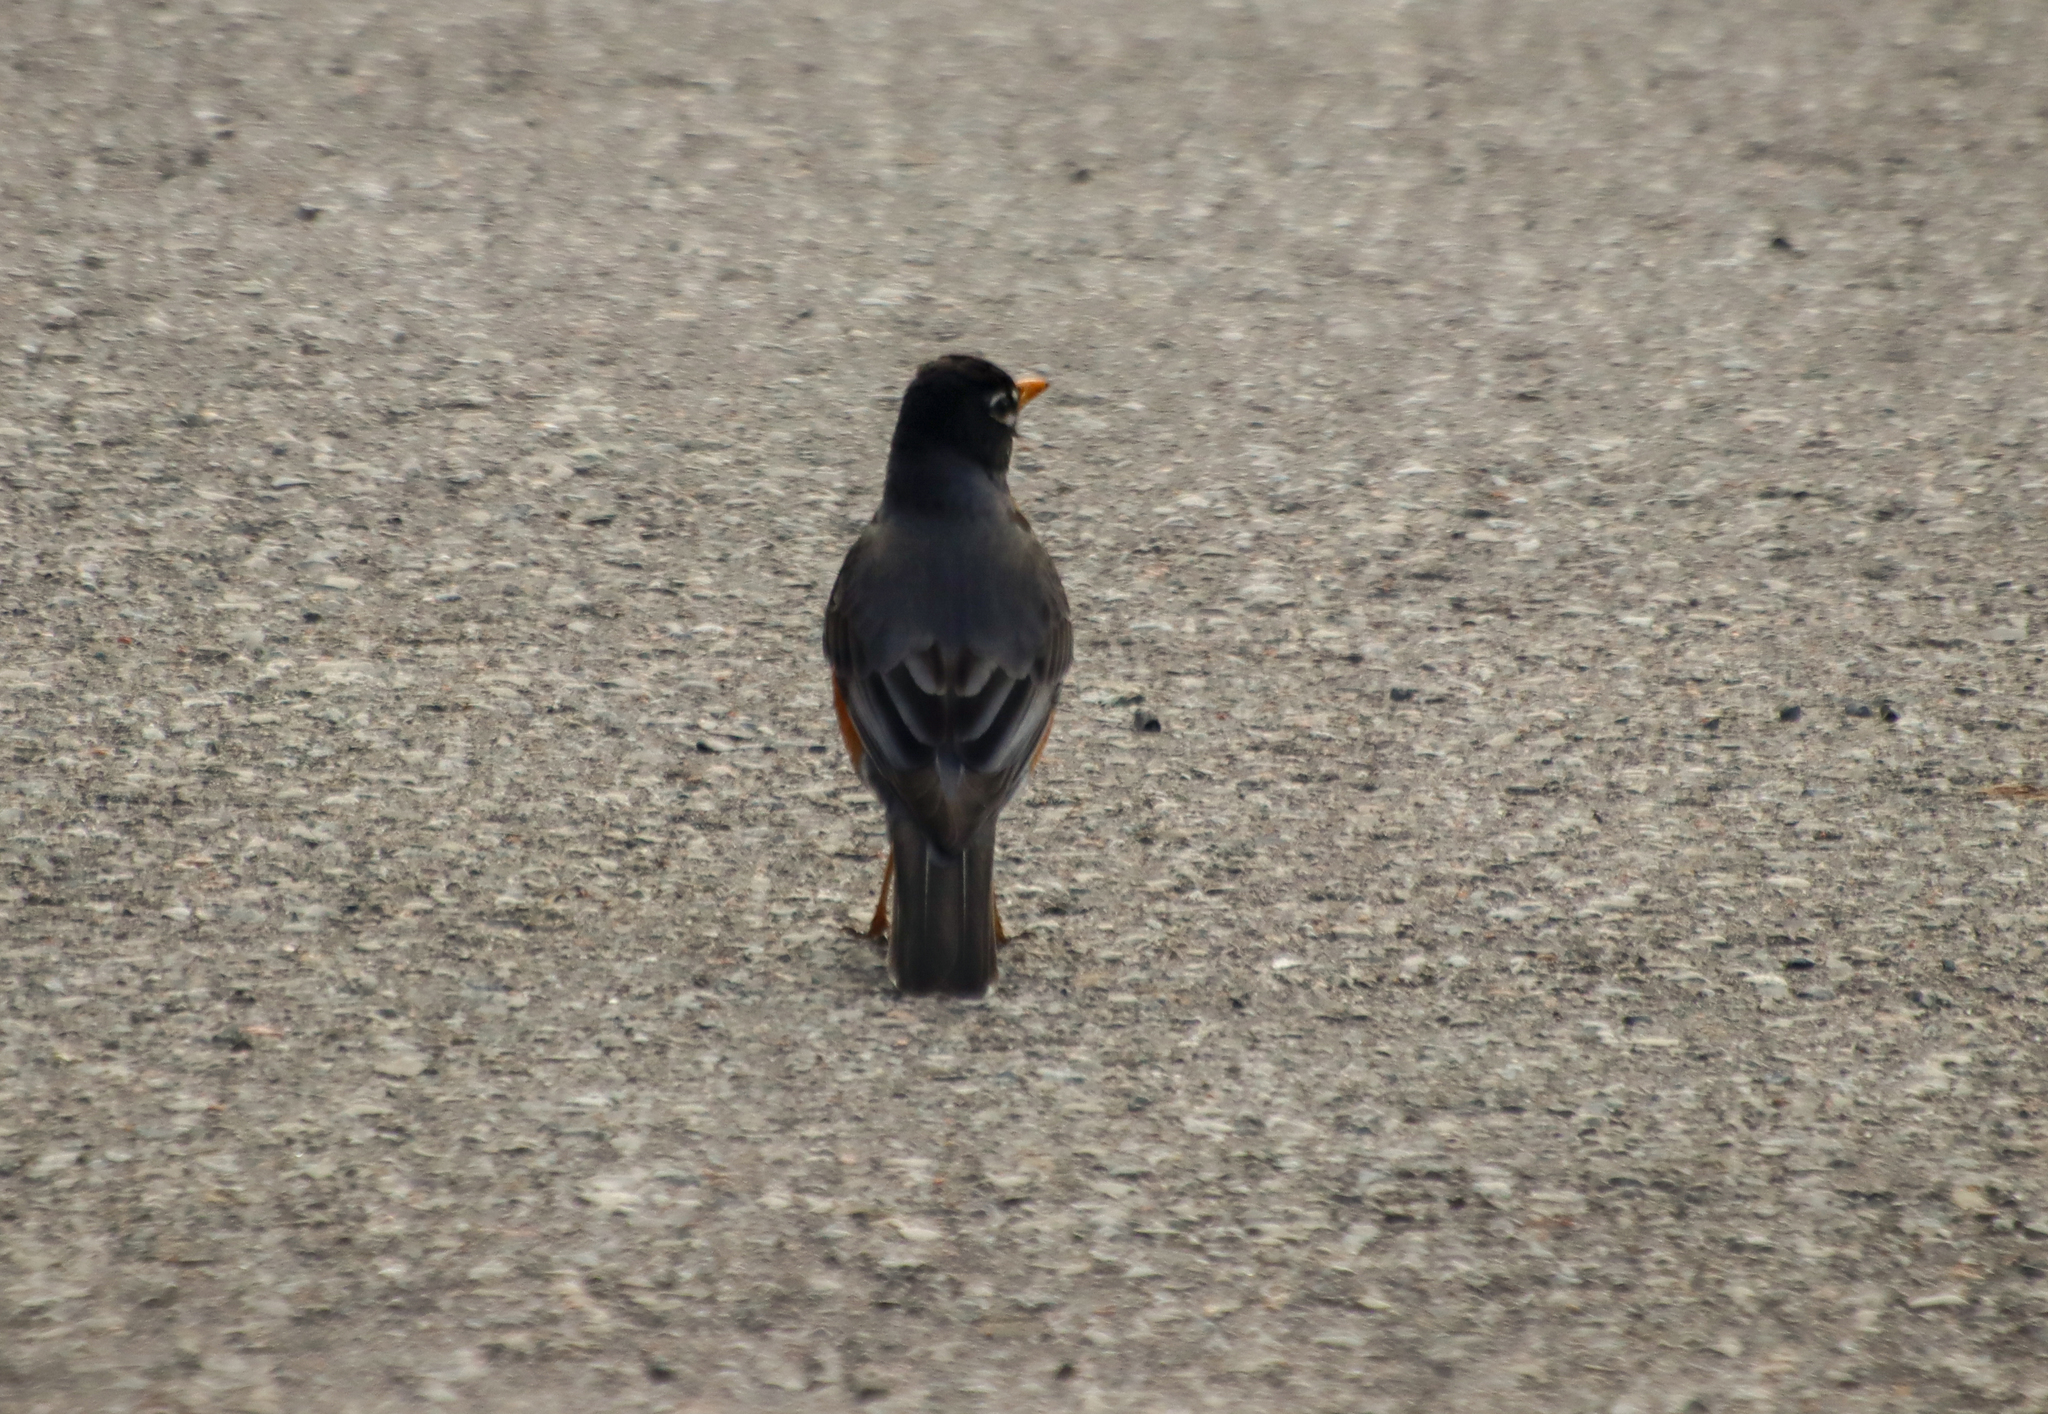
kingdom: Animalia
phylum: Chordata
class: Aves
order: Passeriformes
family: Turdidae
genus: Turdus
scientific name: Turdus migratorius
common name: American robin
